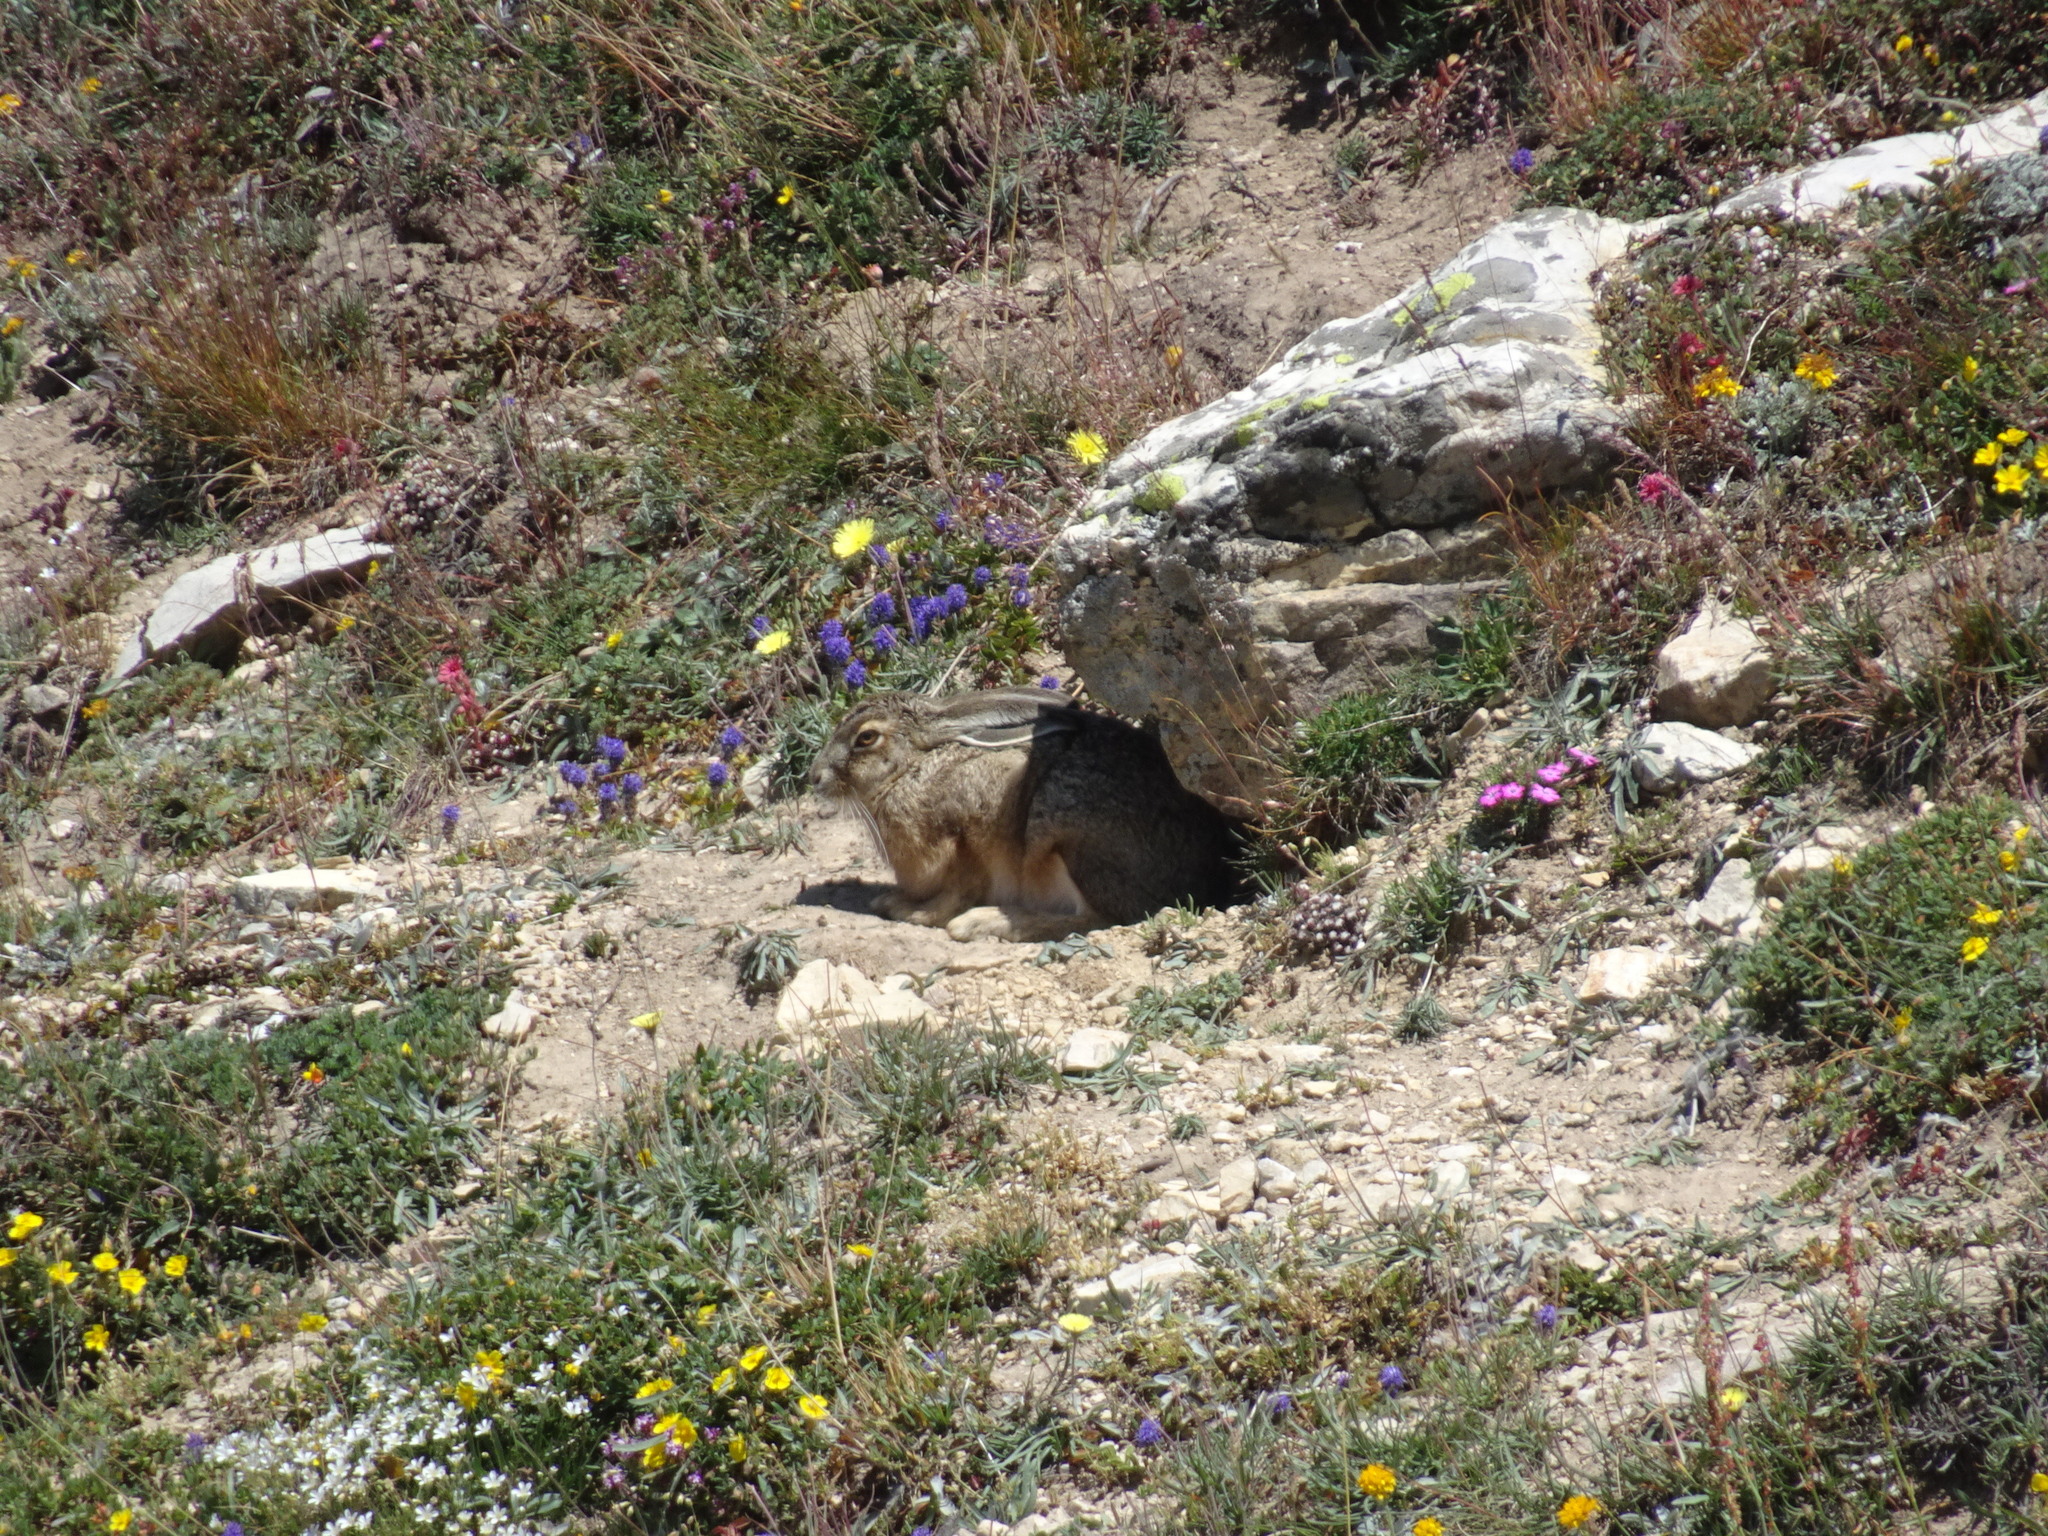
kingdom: Animalia
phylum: Chordata
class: Mammalia
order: Lagomorpha
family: Leporidae
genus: Lepus
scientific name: Lepus europaeus
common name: European hare
